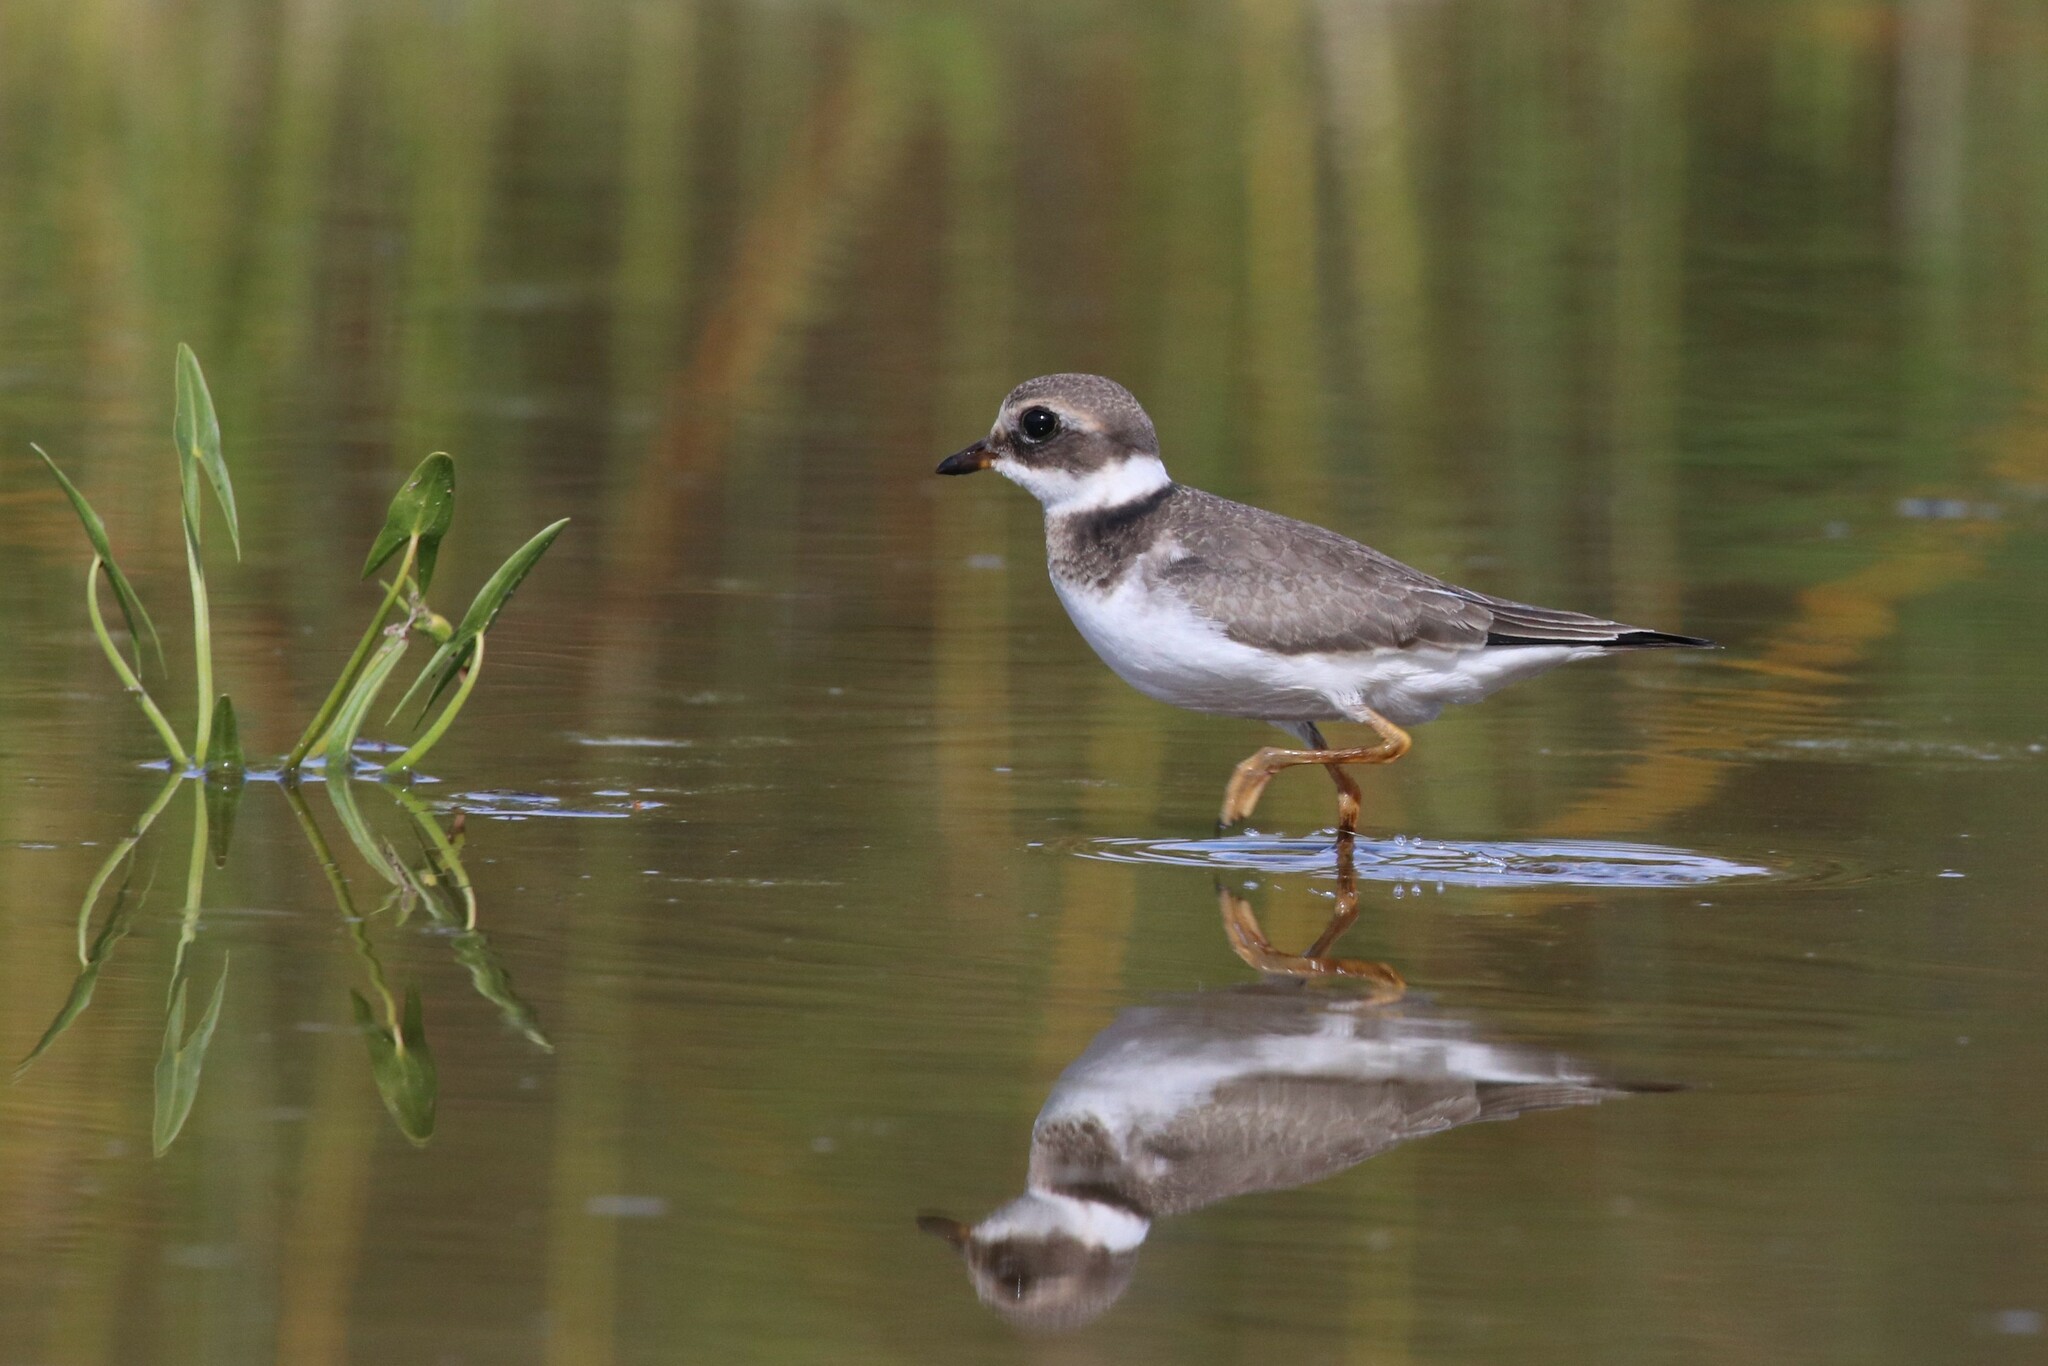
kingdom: Animalia
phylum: Chordata
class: Aves
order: Charadriiformes
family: Charadriidae
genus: Charadrius
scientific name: Charadrius hiaticula
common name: Common ringed plover
